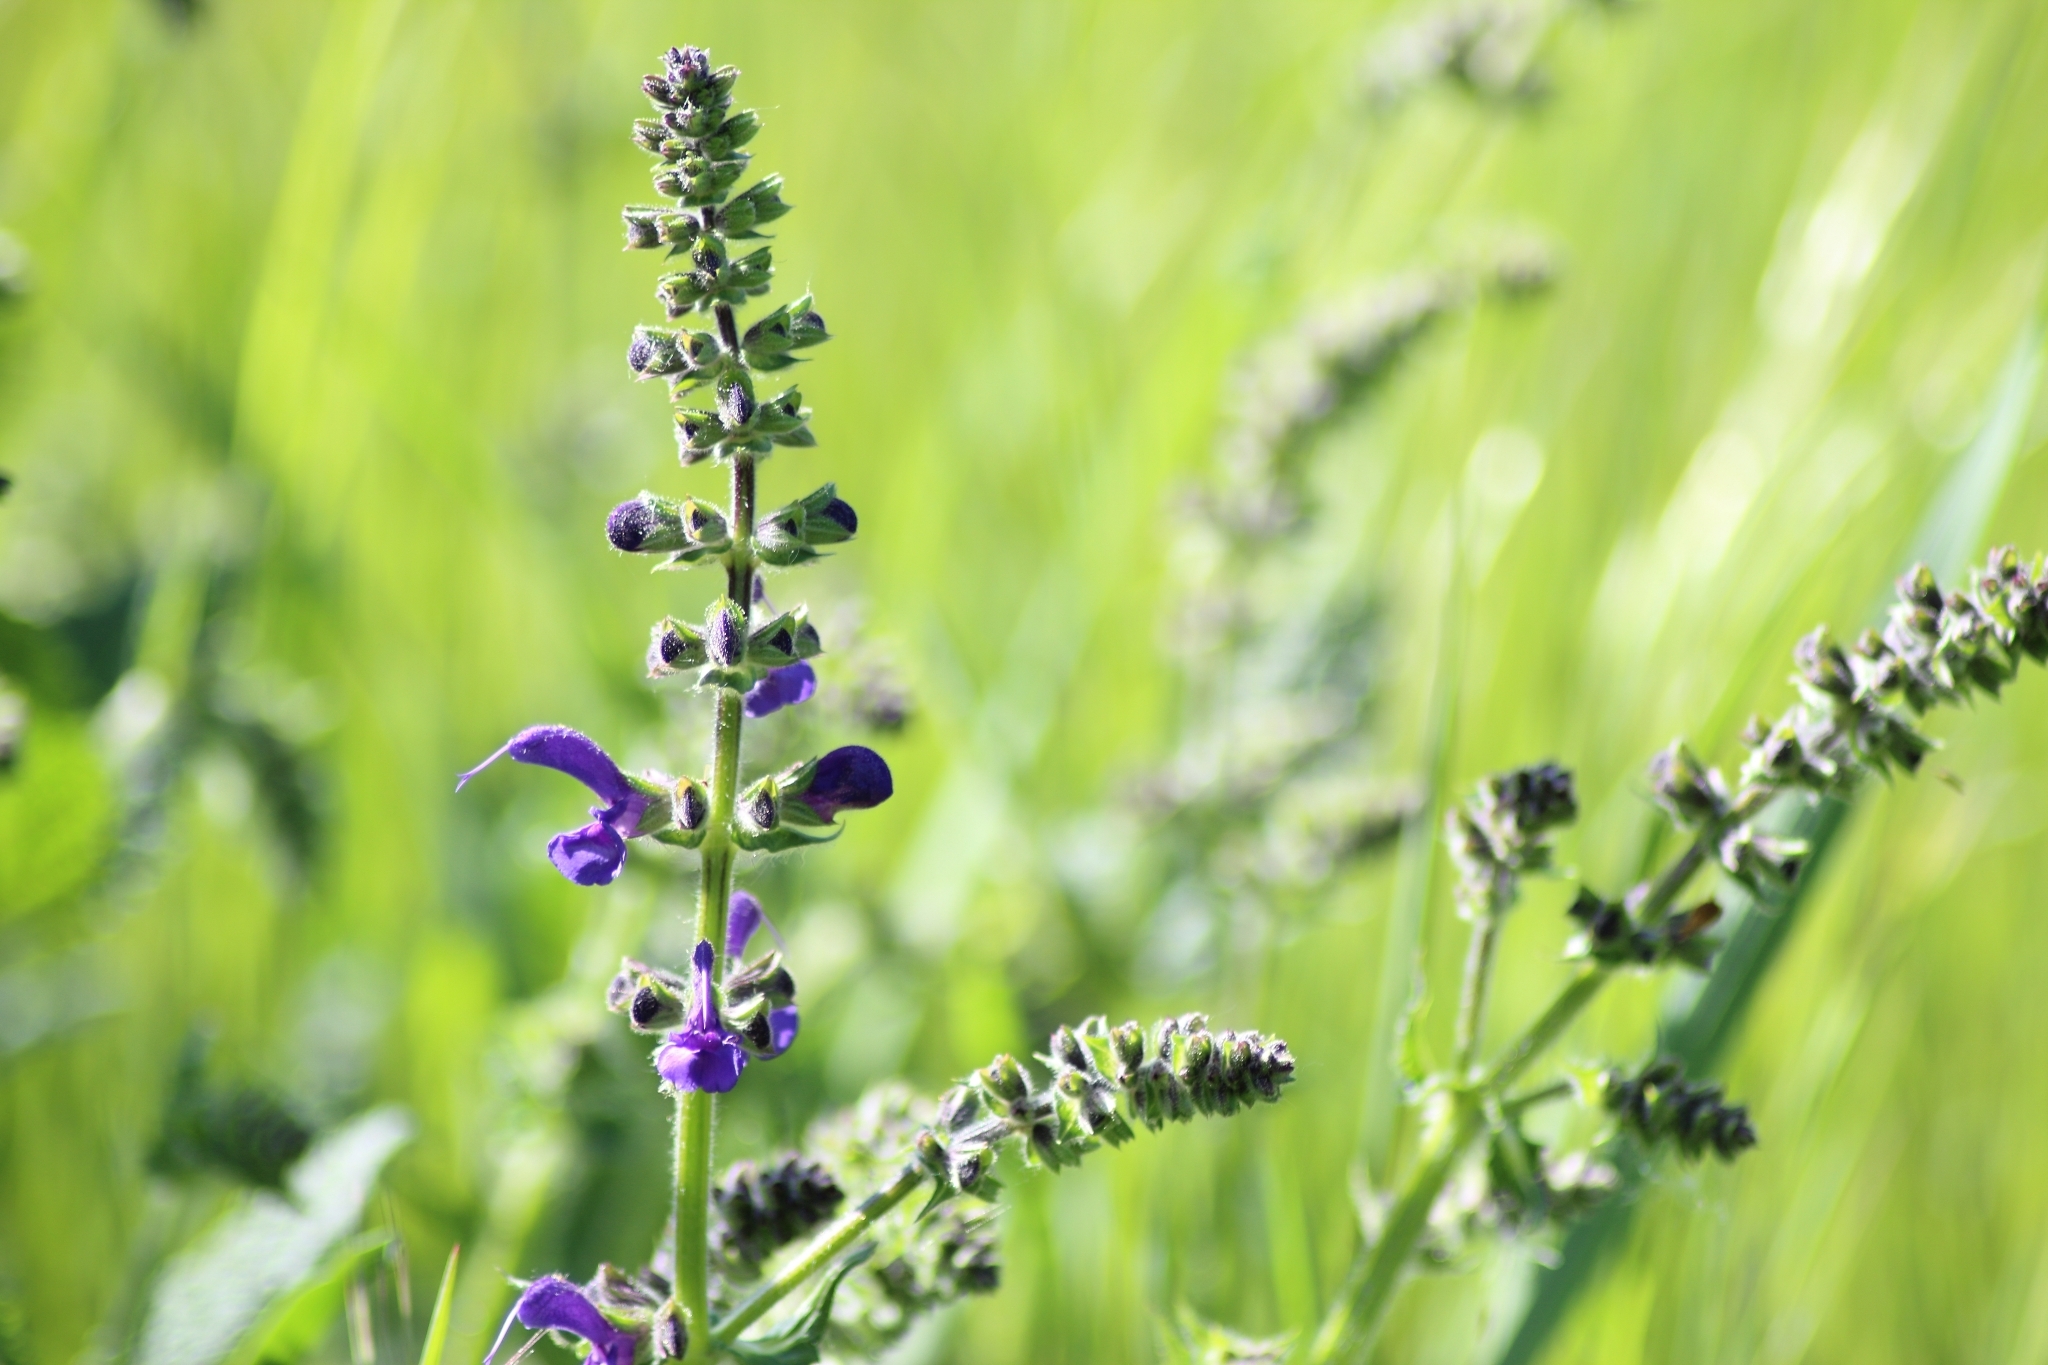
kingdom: Plantae
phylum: Tracheophyta
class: Magnoliopsida
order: Lamiales
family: Lamiaceae
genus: Salvia
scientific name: Salvia pratensis
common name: Meadow sage
